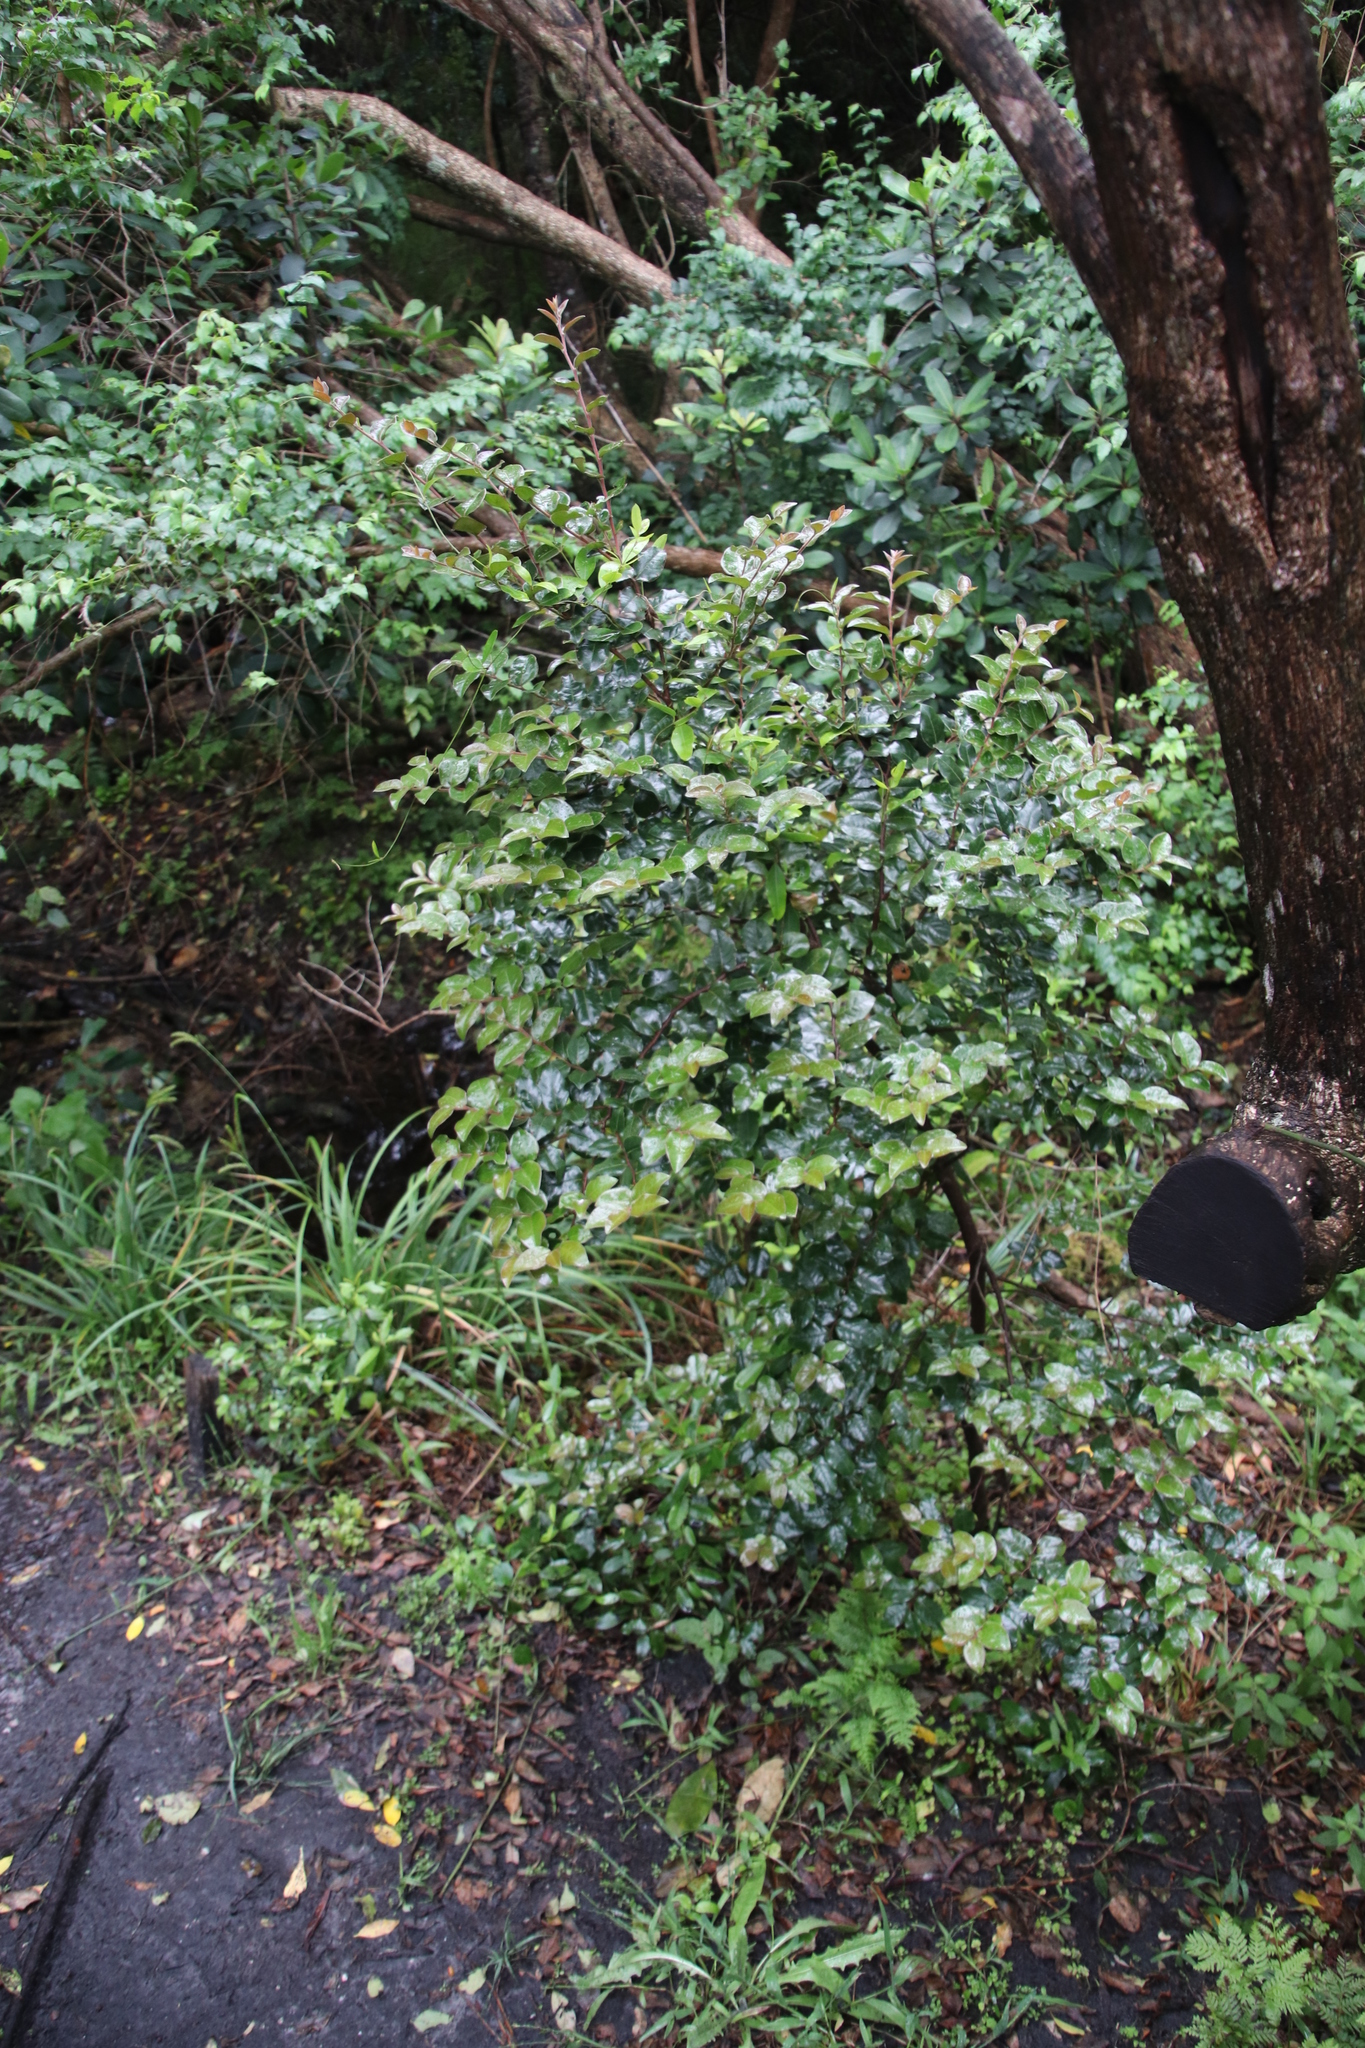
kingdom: Plantae
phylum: Tracheophyta
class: Magnoliopsida
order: Ericales
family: Ebenaceae
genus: Diospyros
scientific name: Diospyros whyteana
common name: Bladder-nut
